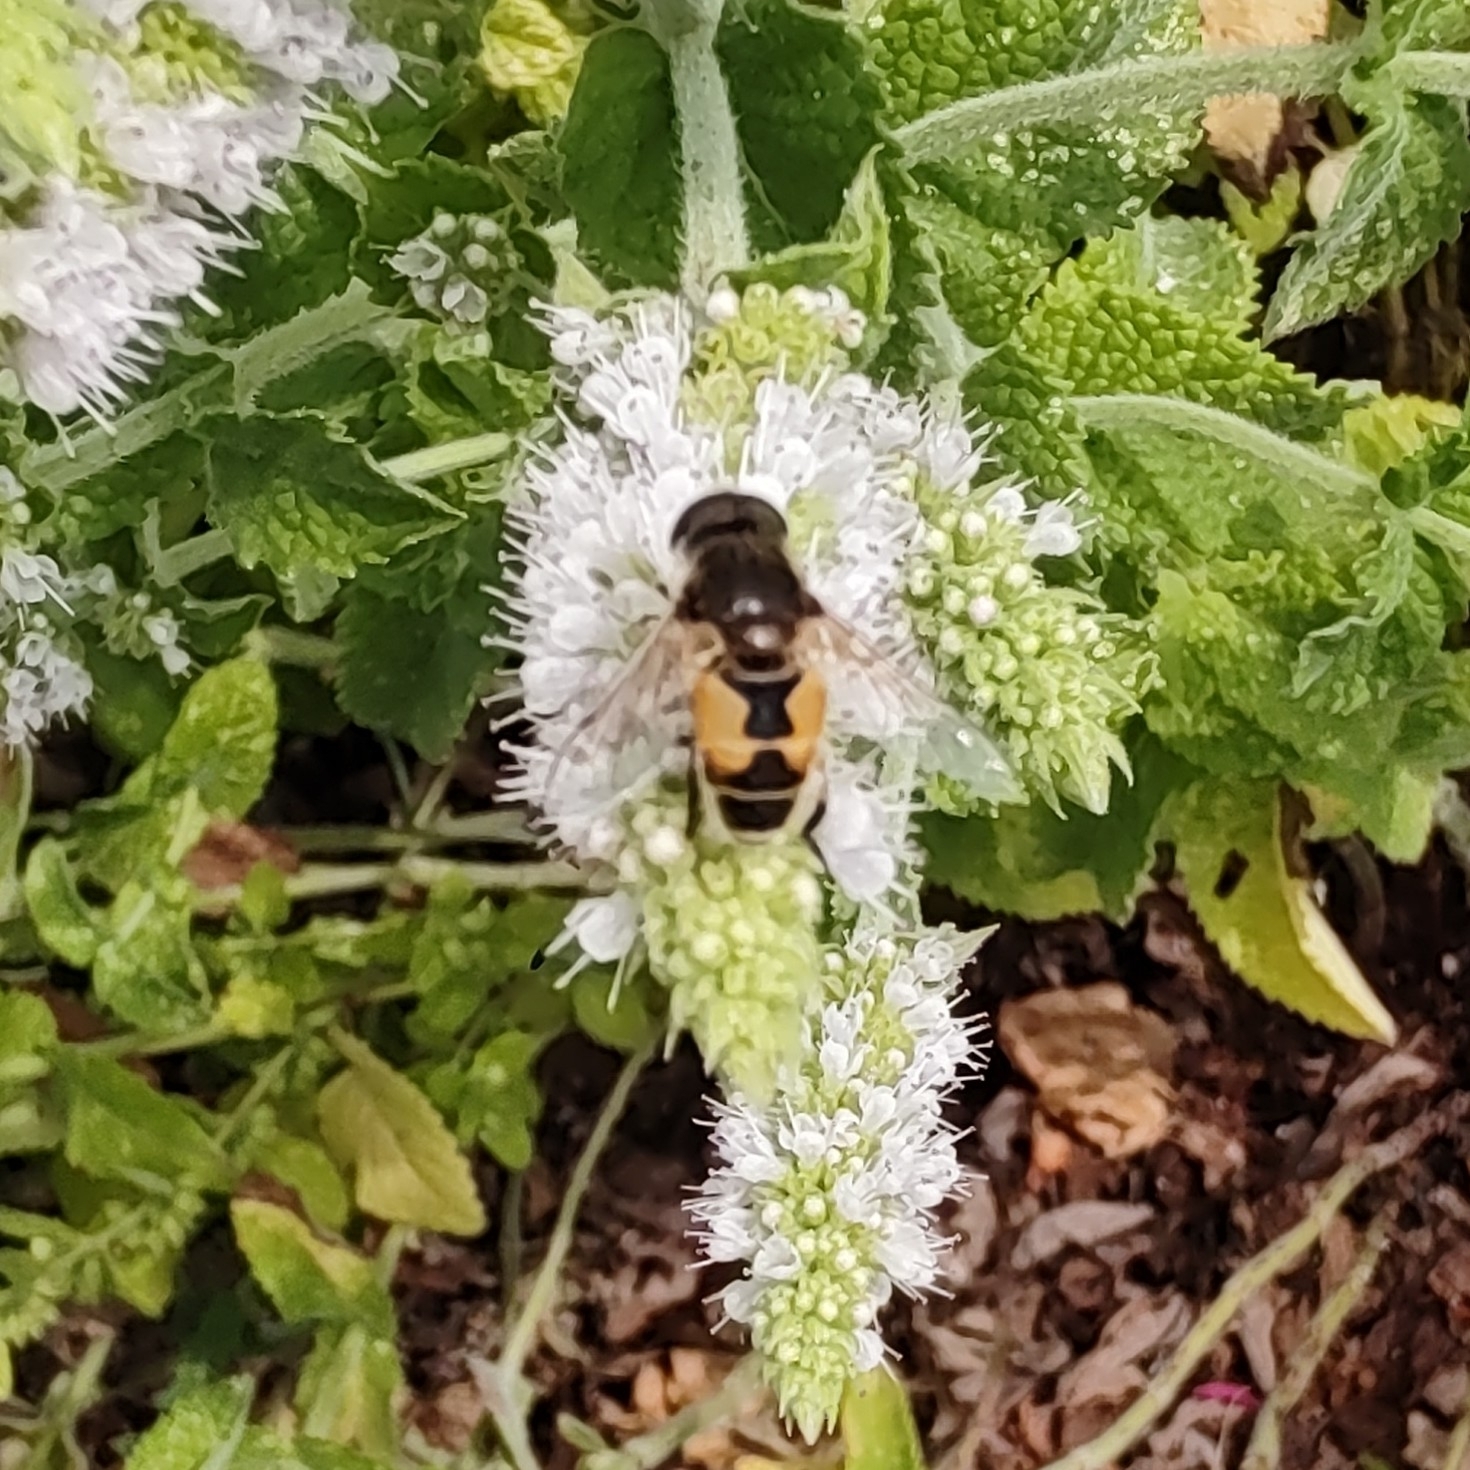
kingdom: Animalia
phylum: Arthropoda
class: Insecta
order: Diptera
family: Syrphidae
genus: Eristalis
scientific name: Eristalis arbustorum
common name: Hover fly
